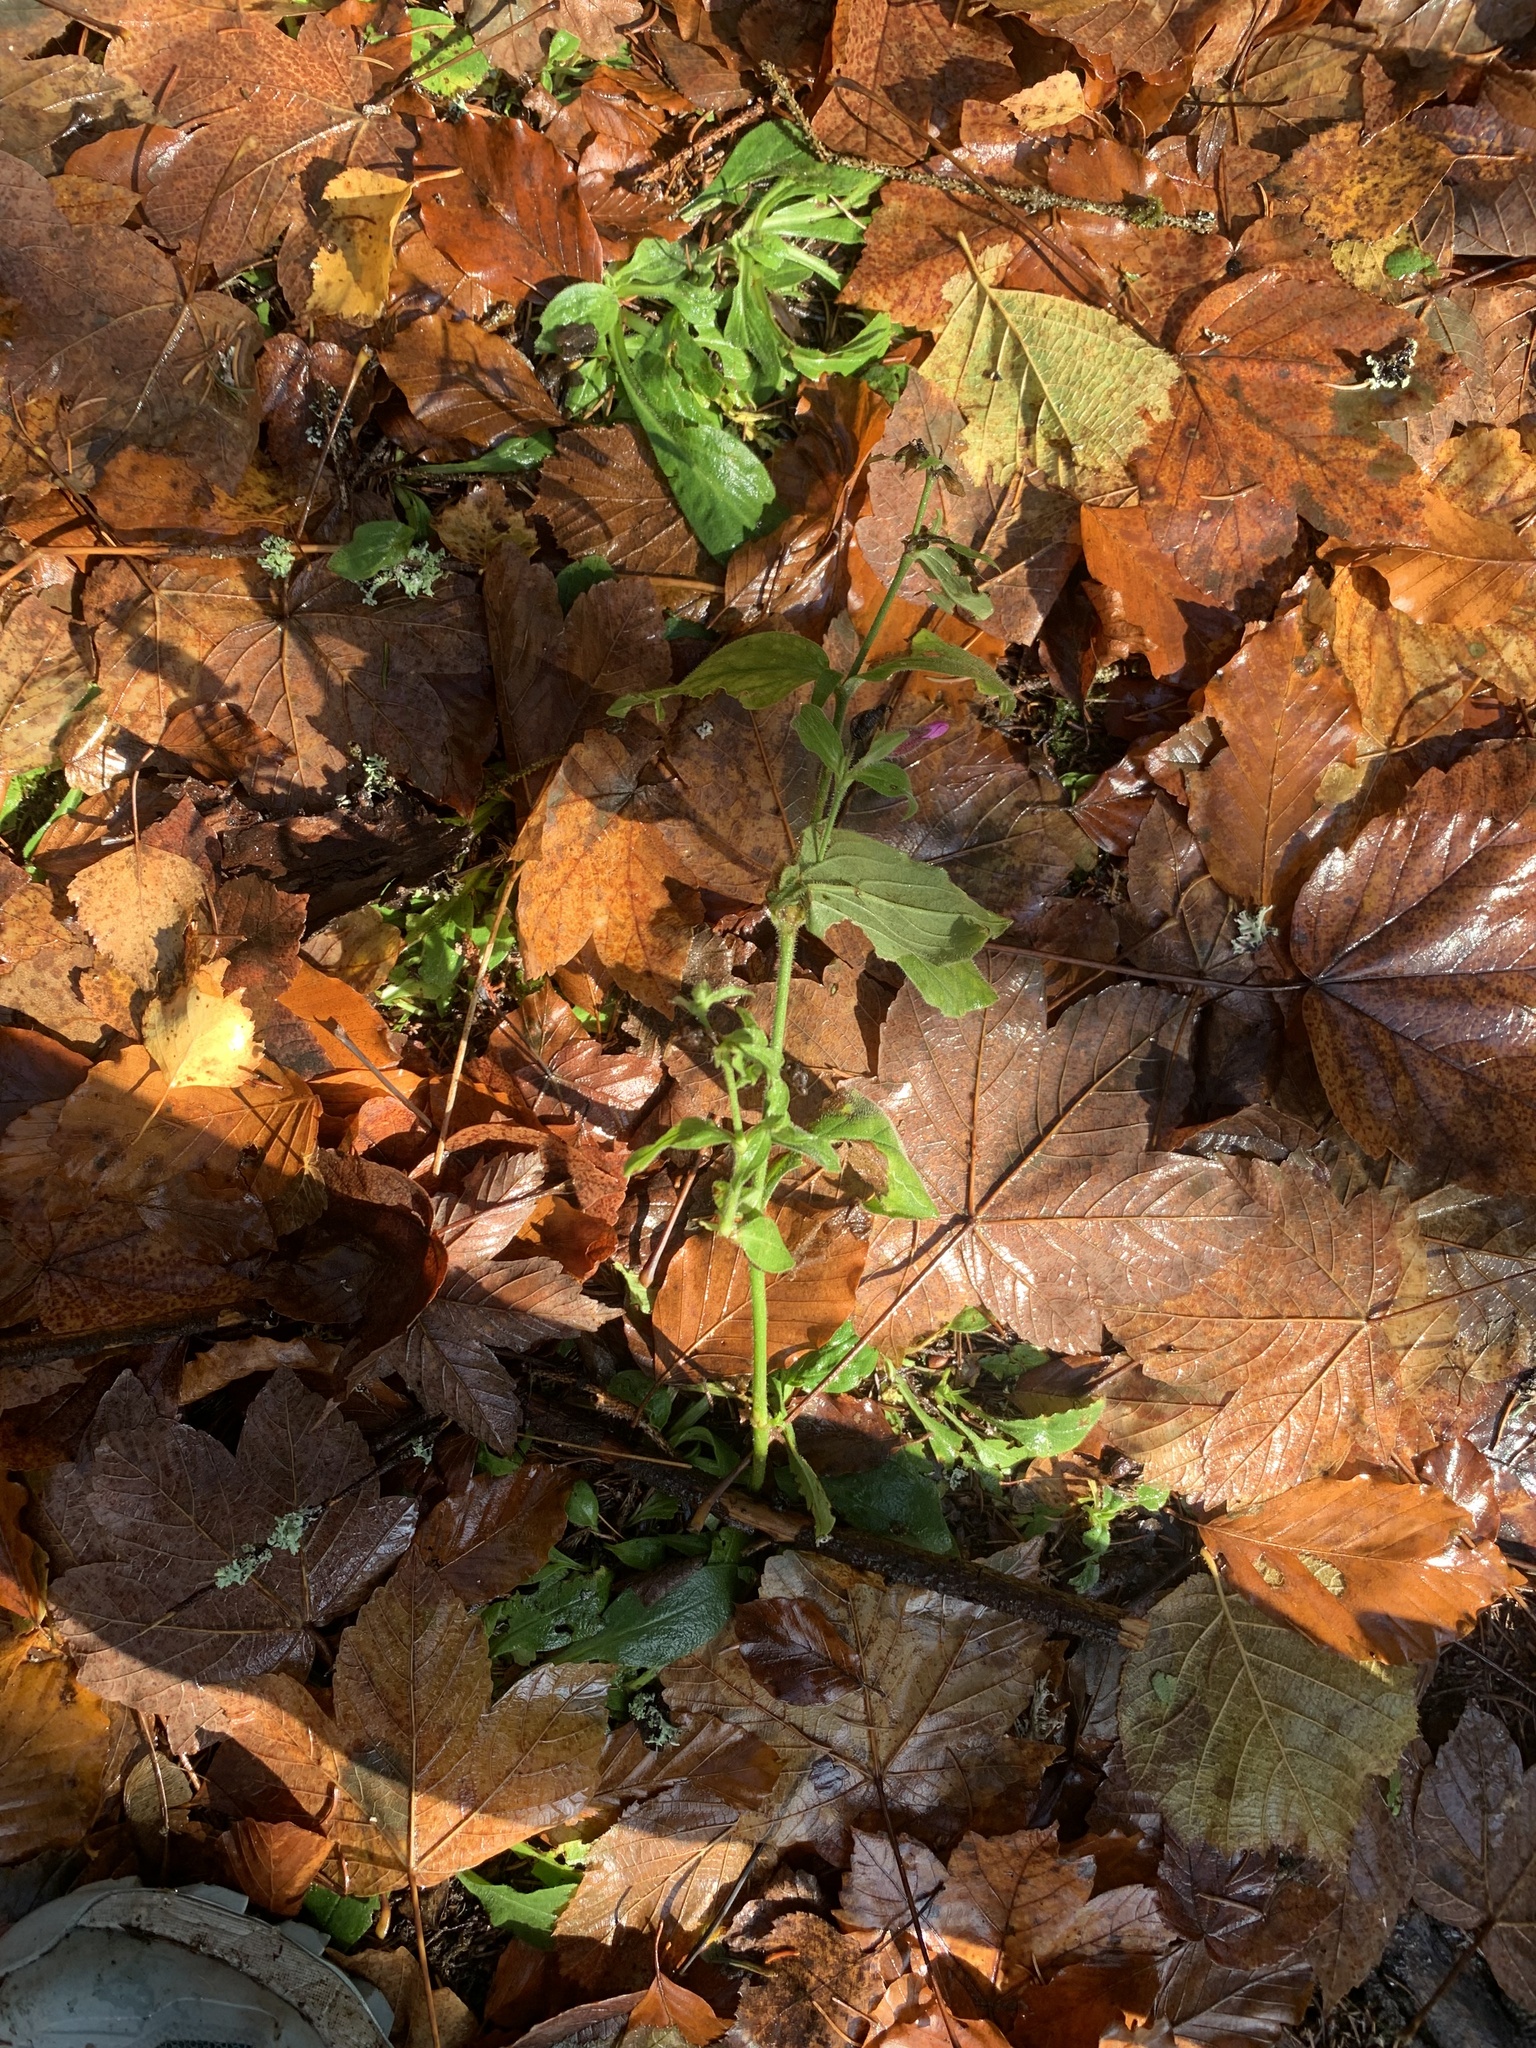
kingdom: Plantae
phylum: Tracheophyta
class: Magnoliopsida
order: Caryophyllales
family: Caryophyllaceae
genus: Silene
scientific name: Silene dioica
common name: Red campion
